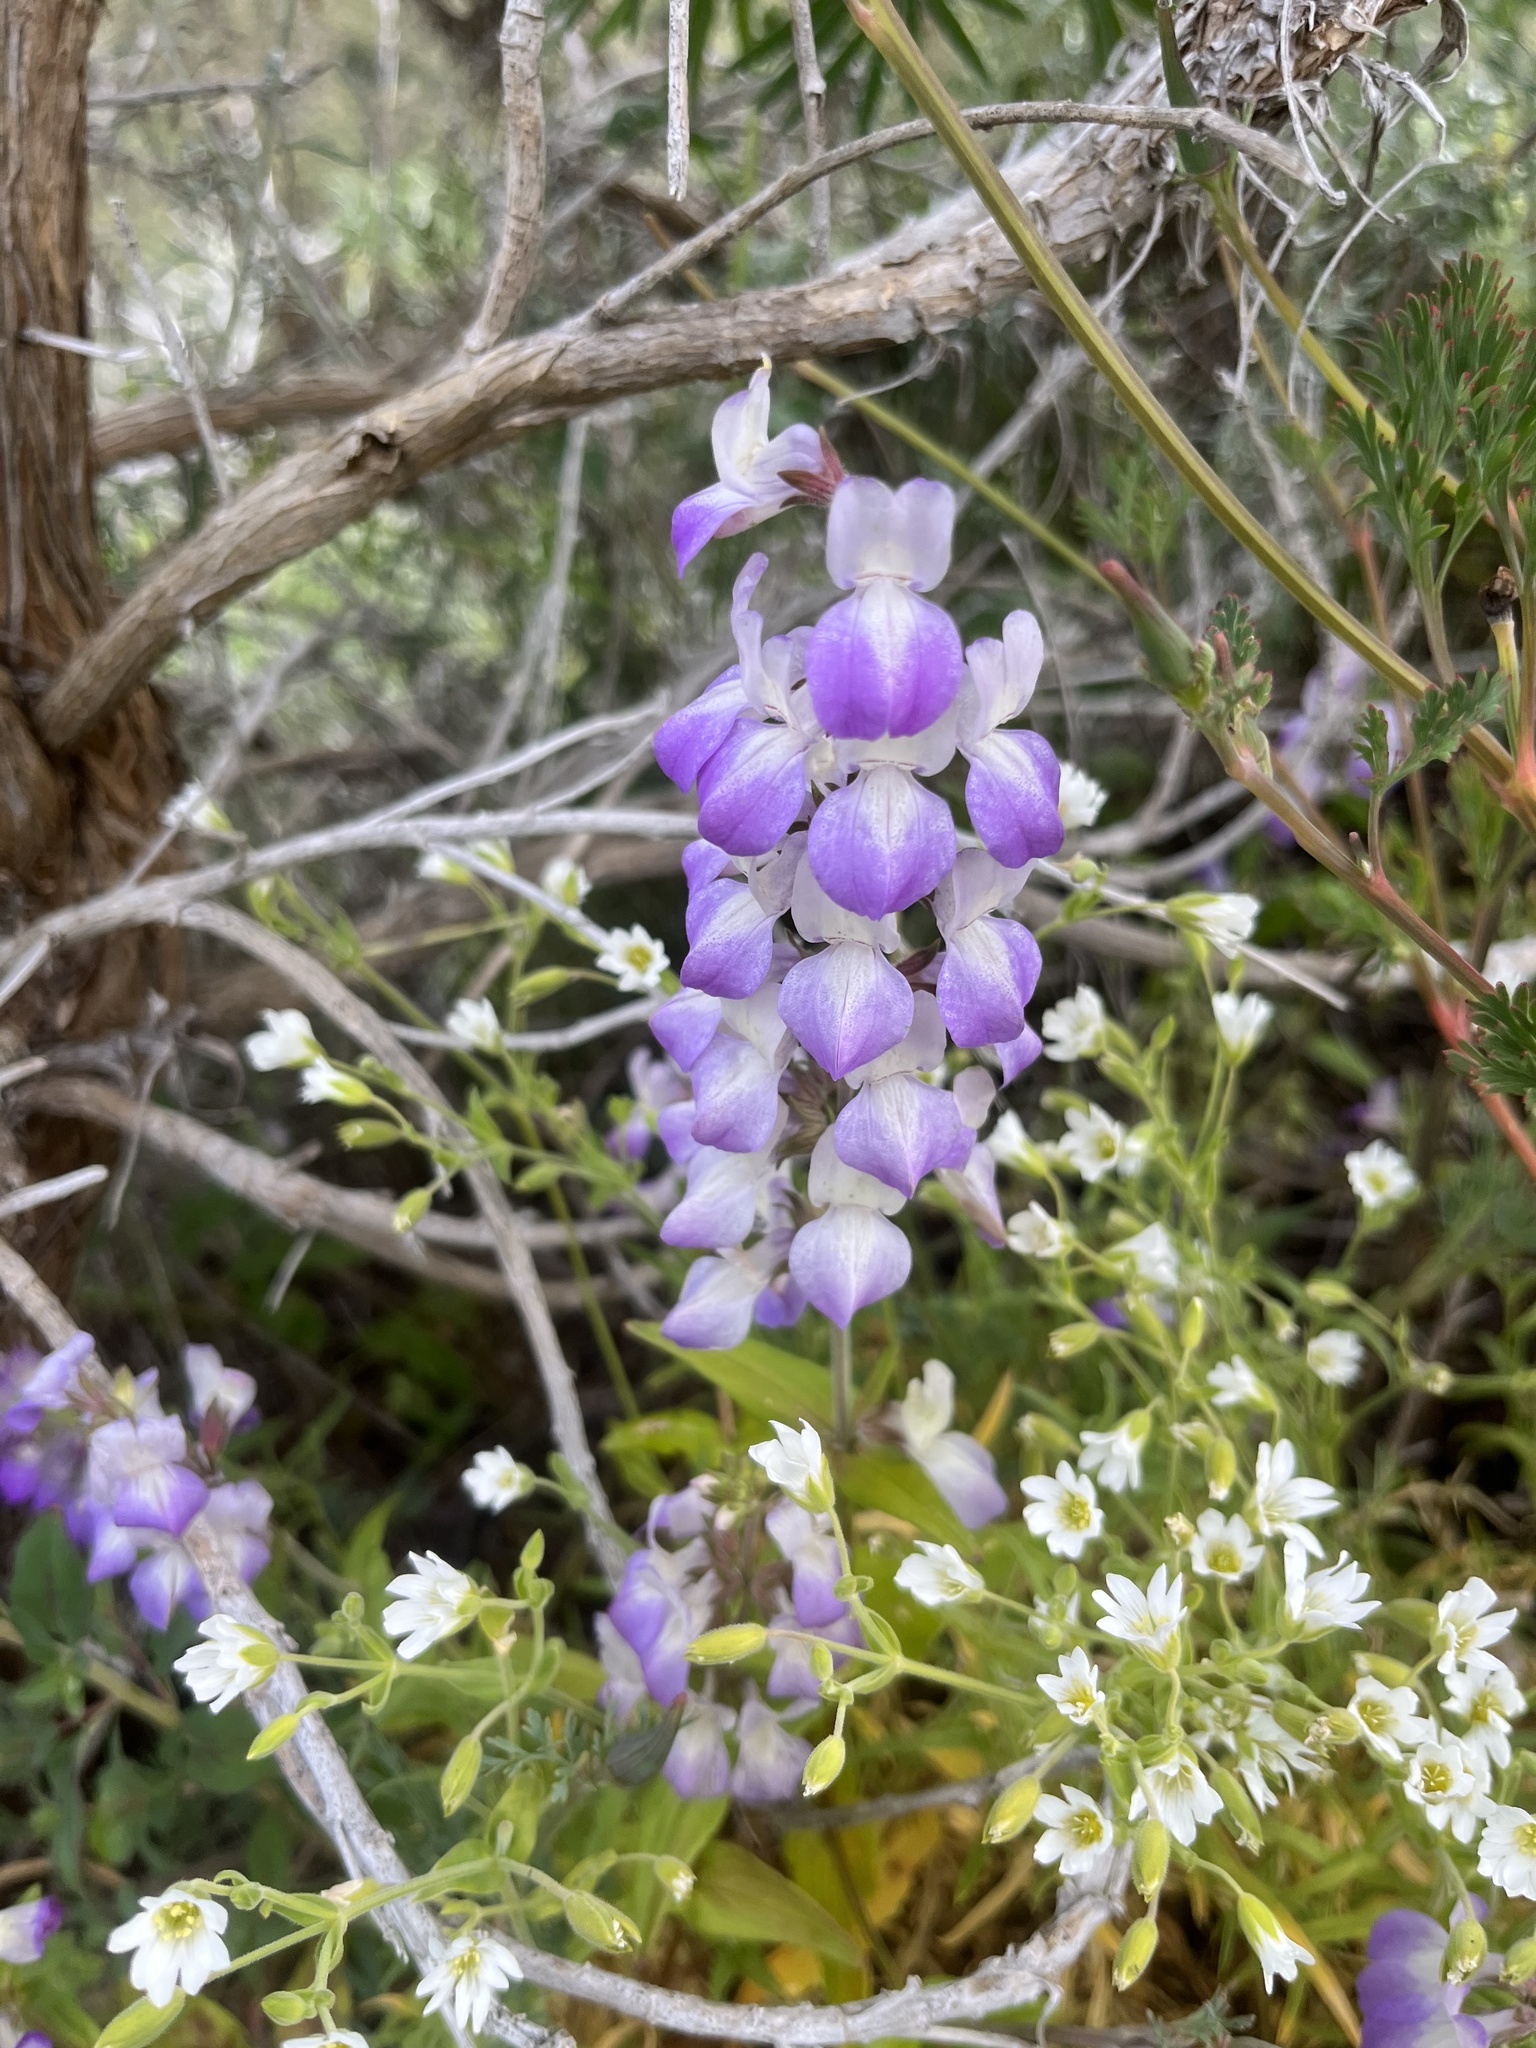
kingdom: Plantae
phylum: Tracheophyta
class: Magnoliopsida
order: Lamiales
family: Plantaginaceae
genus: Collinsia
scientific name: Collinsia heterophylla
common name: Chinese-houses
